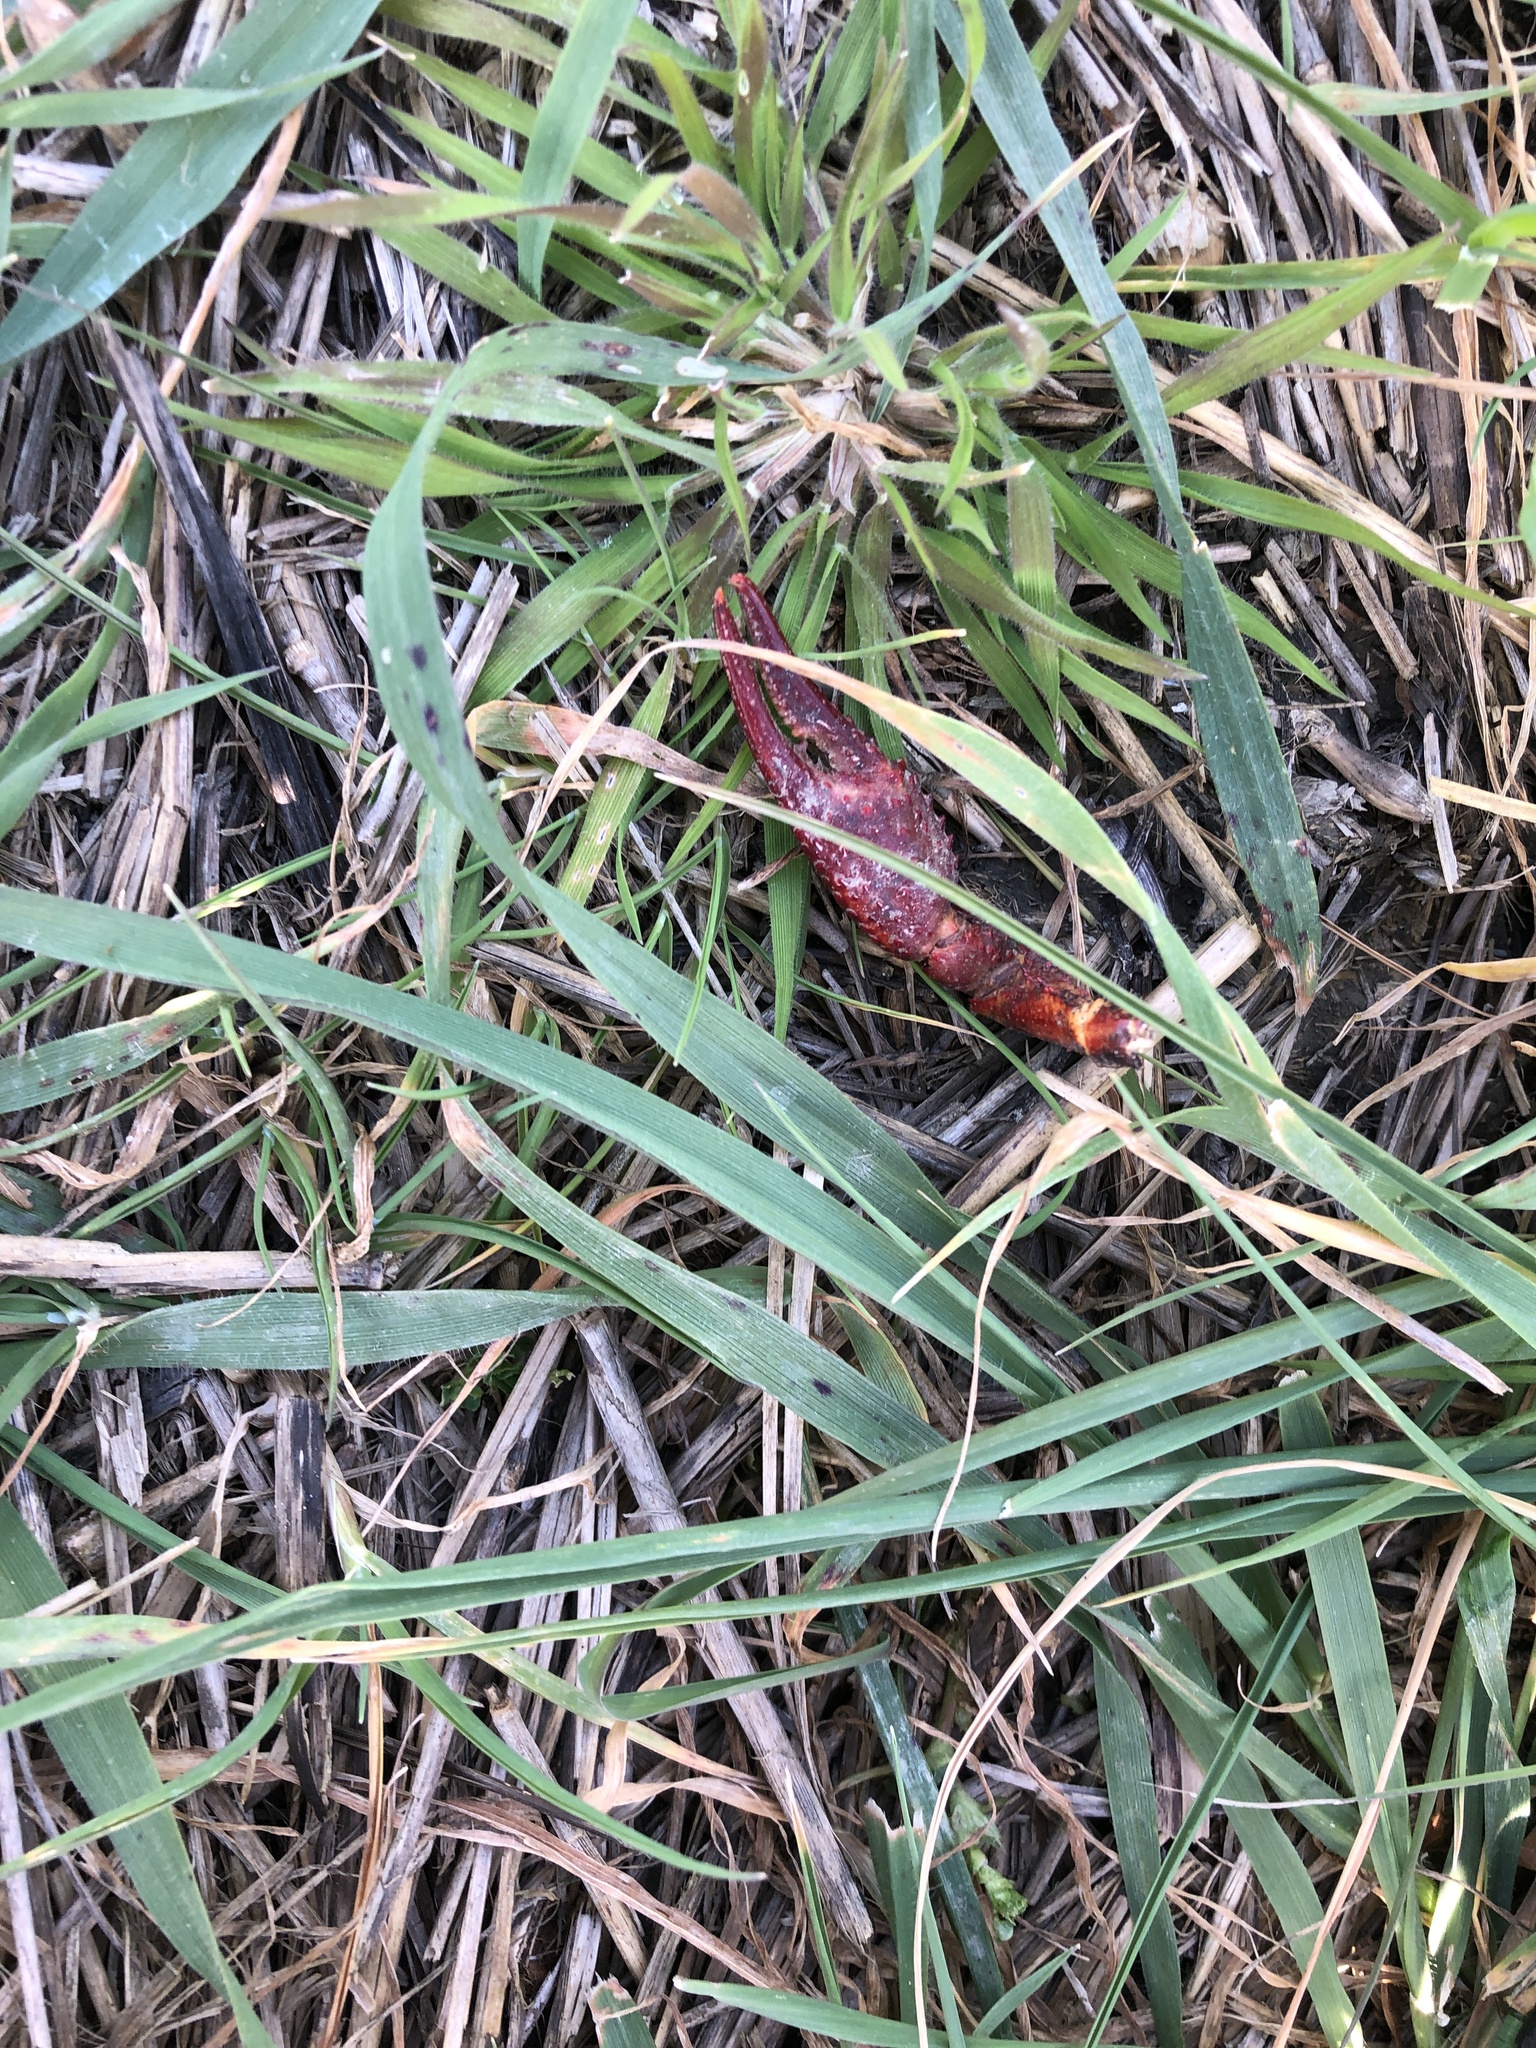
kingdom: Animalia
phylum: Arthropoda
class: Malacostraca
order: Decapoda
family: Cambaridae
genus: Procambarus
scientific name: Procambarus clarkii
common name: Red swamp crayfish
